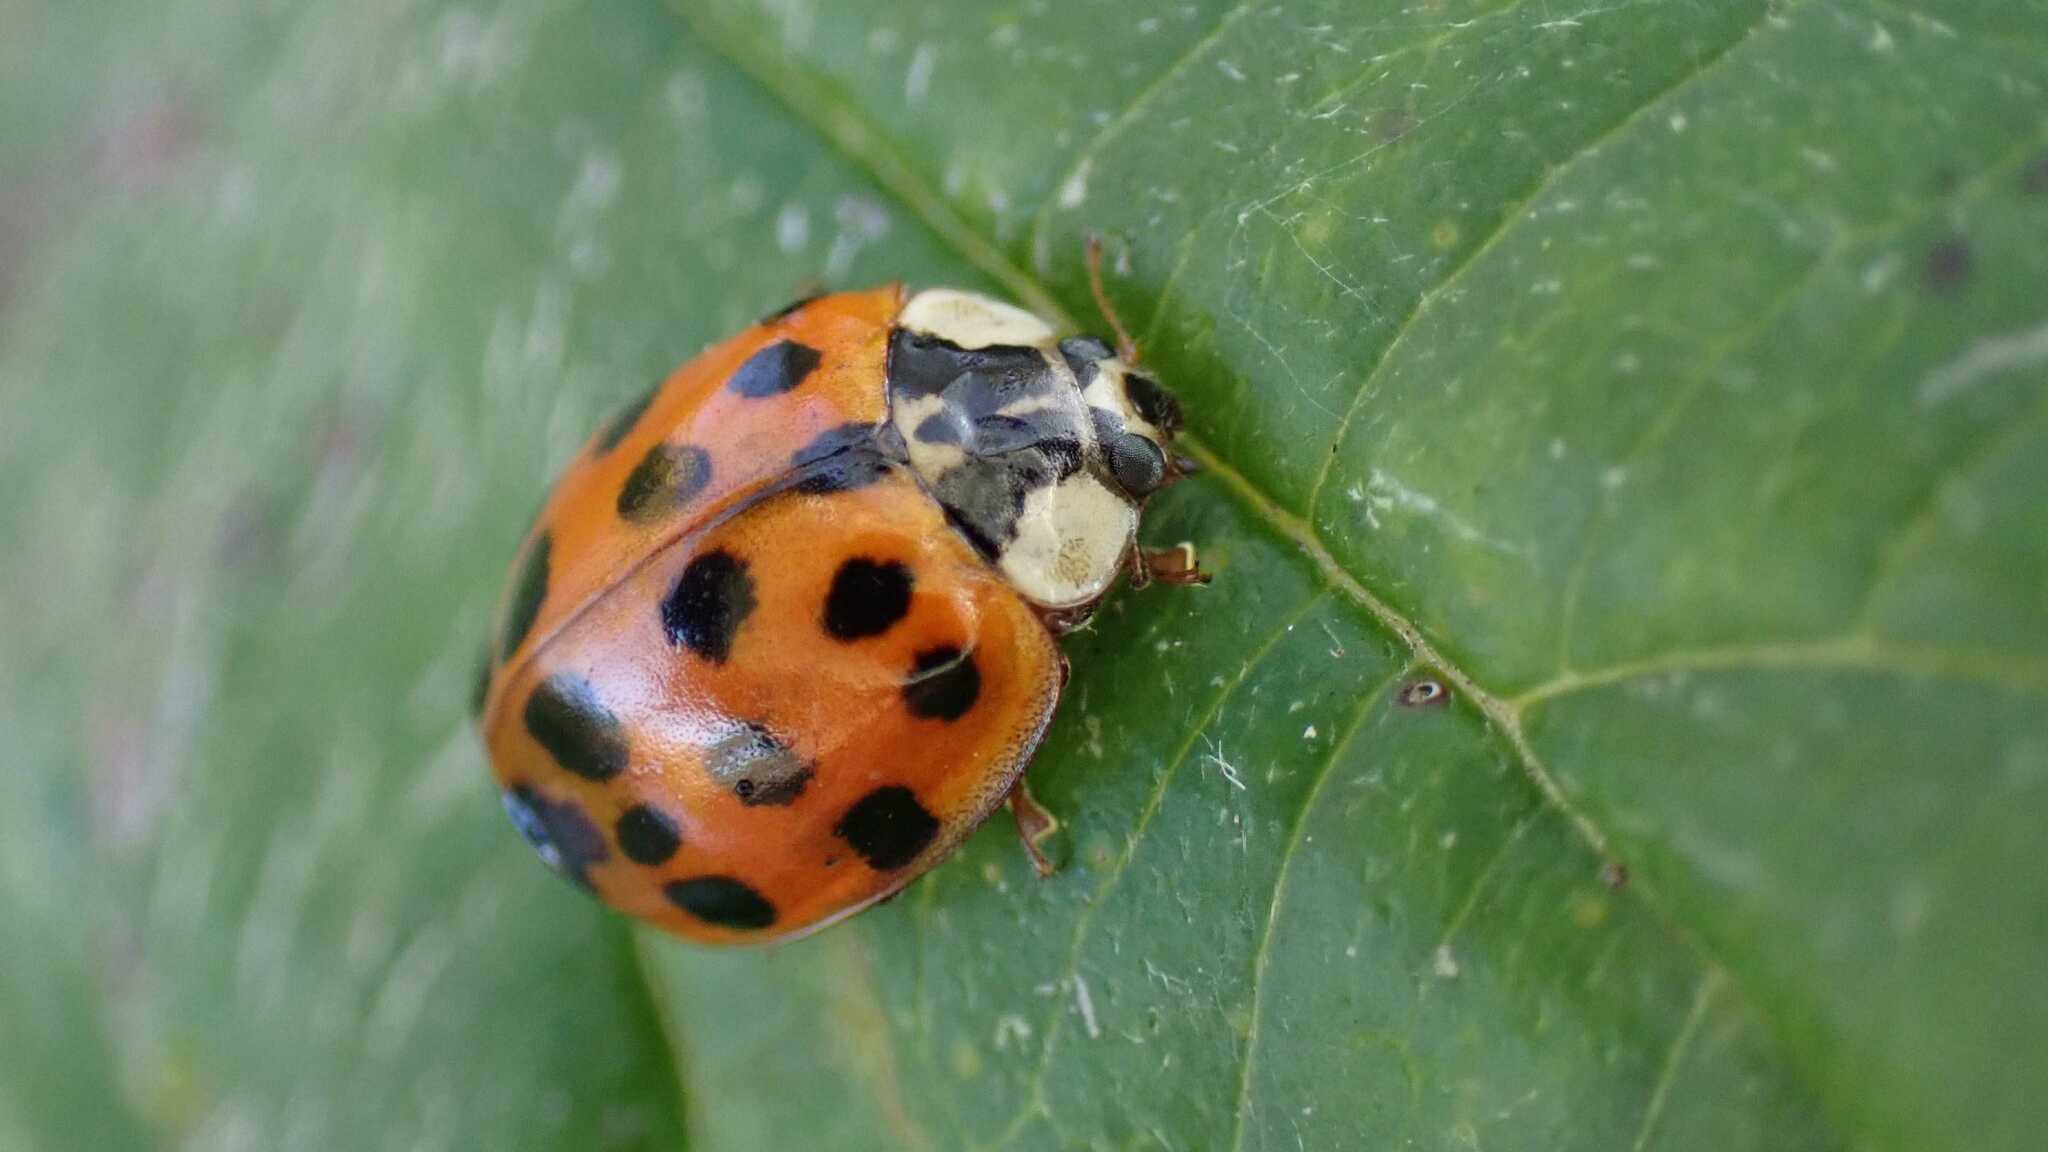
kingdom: Animalia
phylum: Arthropoda
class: Insecta
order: Coleoptera
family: Coccinellidae
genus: Harmonia
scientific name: Harmonia axyridis
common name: Harlequin ladybird
